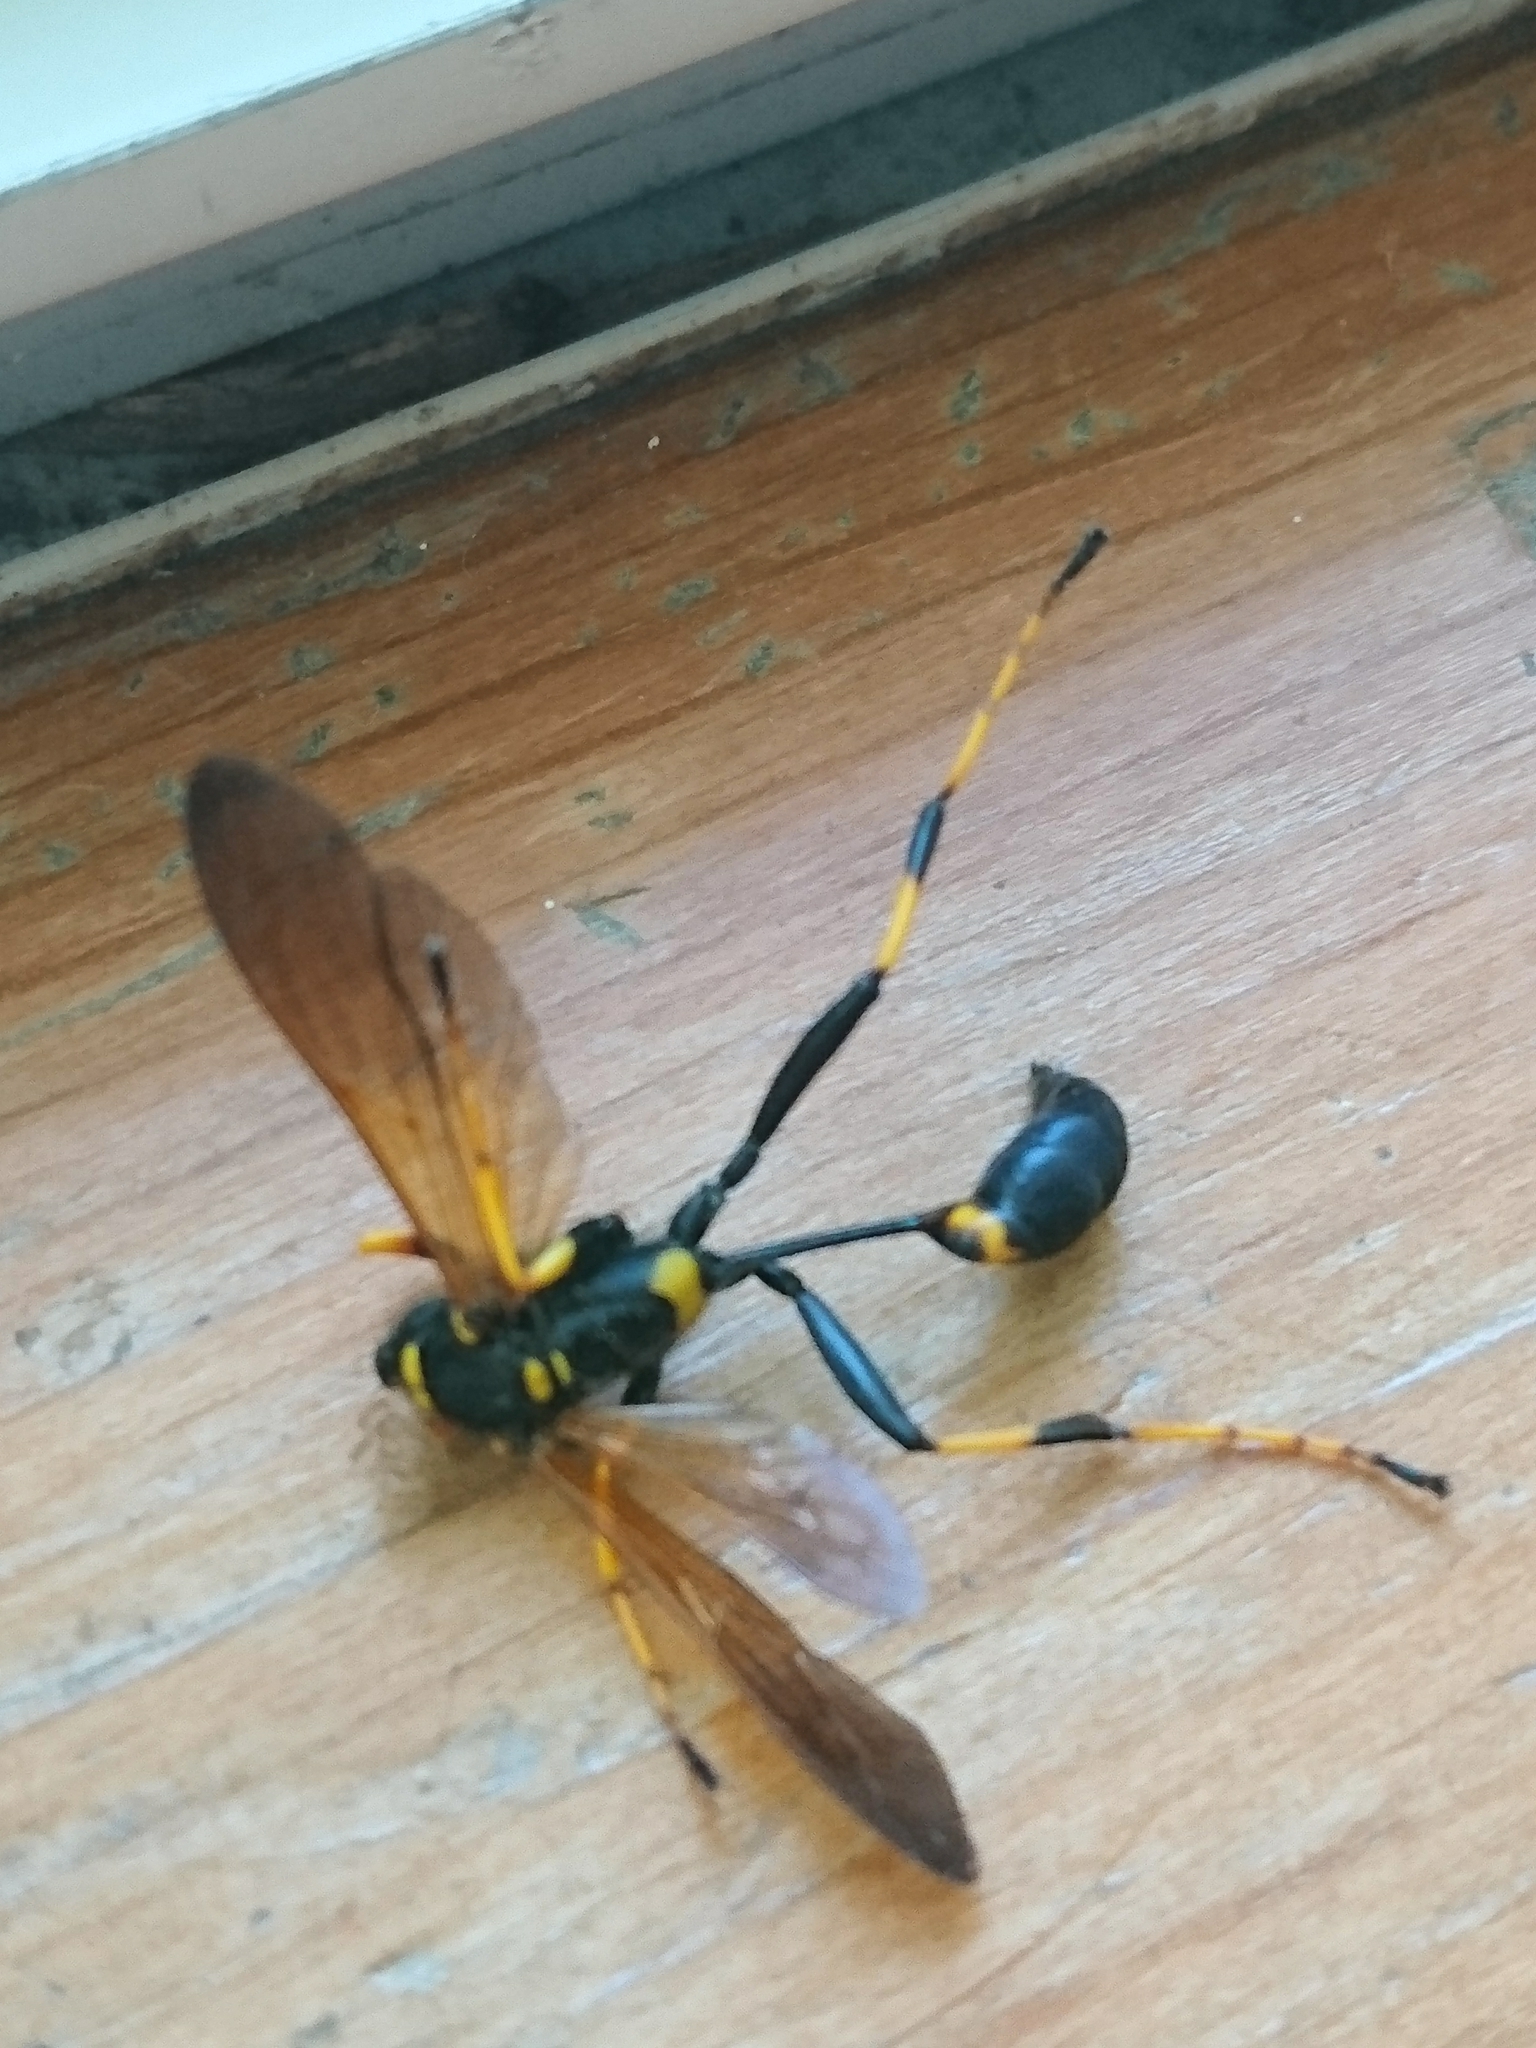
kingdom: Animalia
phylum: Arthropoda
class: Insecta
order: Hymenoptera
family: Sphecidae
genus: Sceliphron
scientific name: Sceliphron caementarium
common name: Mud dauber
